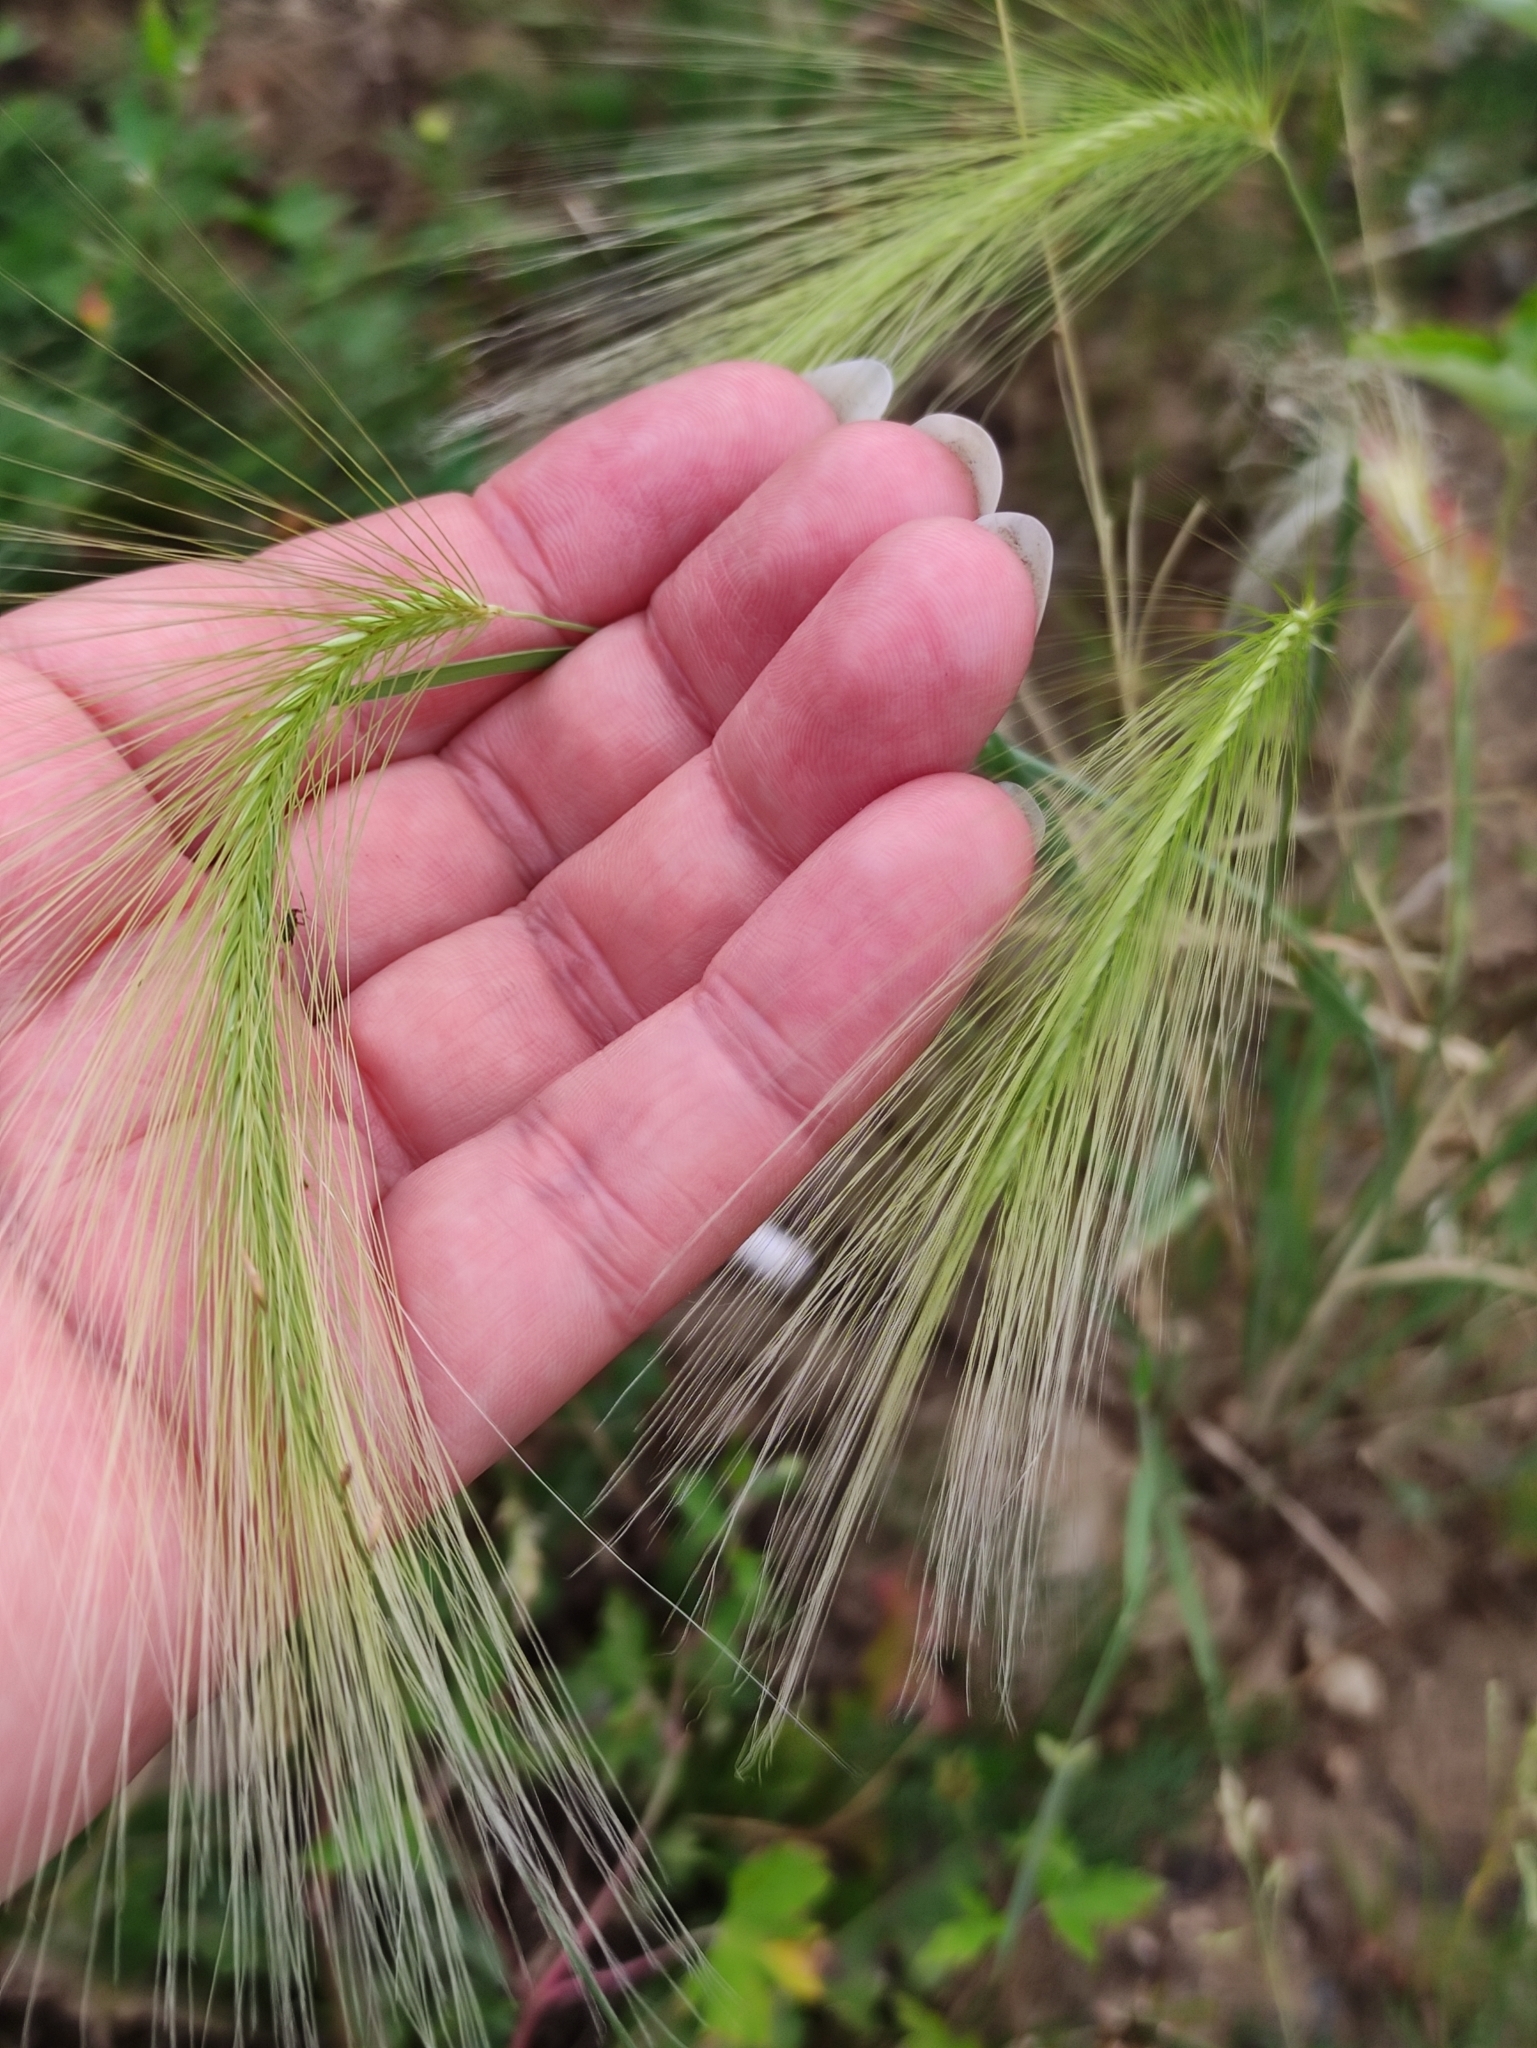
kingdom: Plantae
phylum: Tracheophyta
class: Liliopsida
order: Poales
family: Poaceae
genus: Hordeum
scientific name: Hordeum jubatum
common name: Foxtail barley
